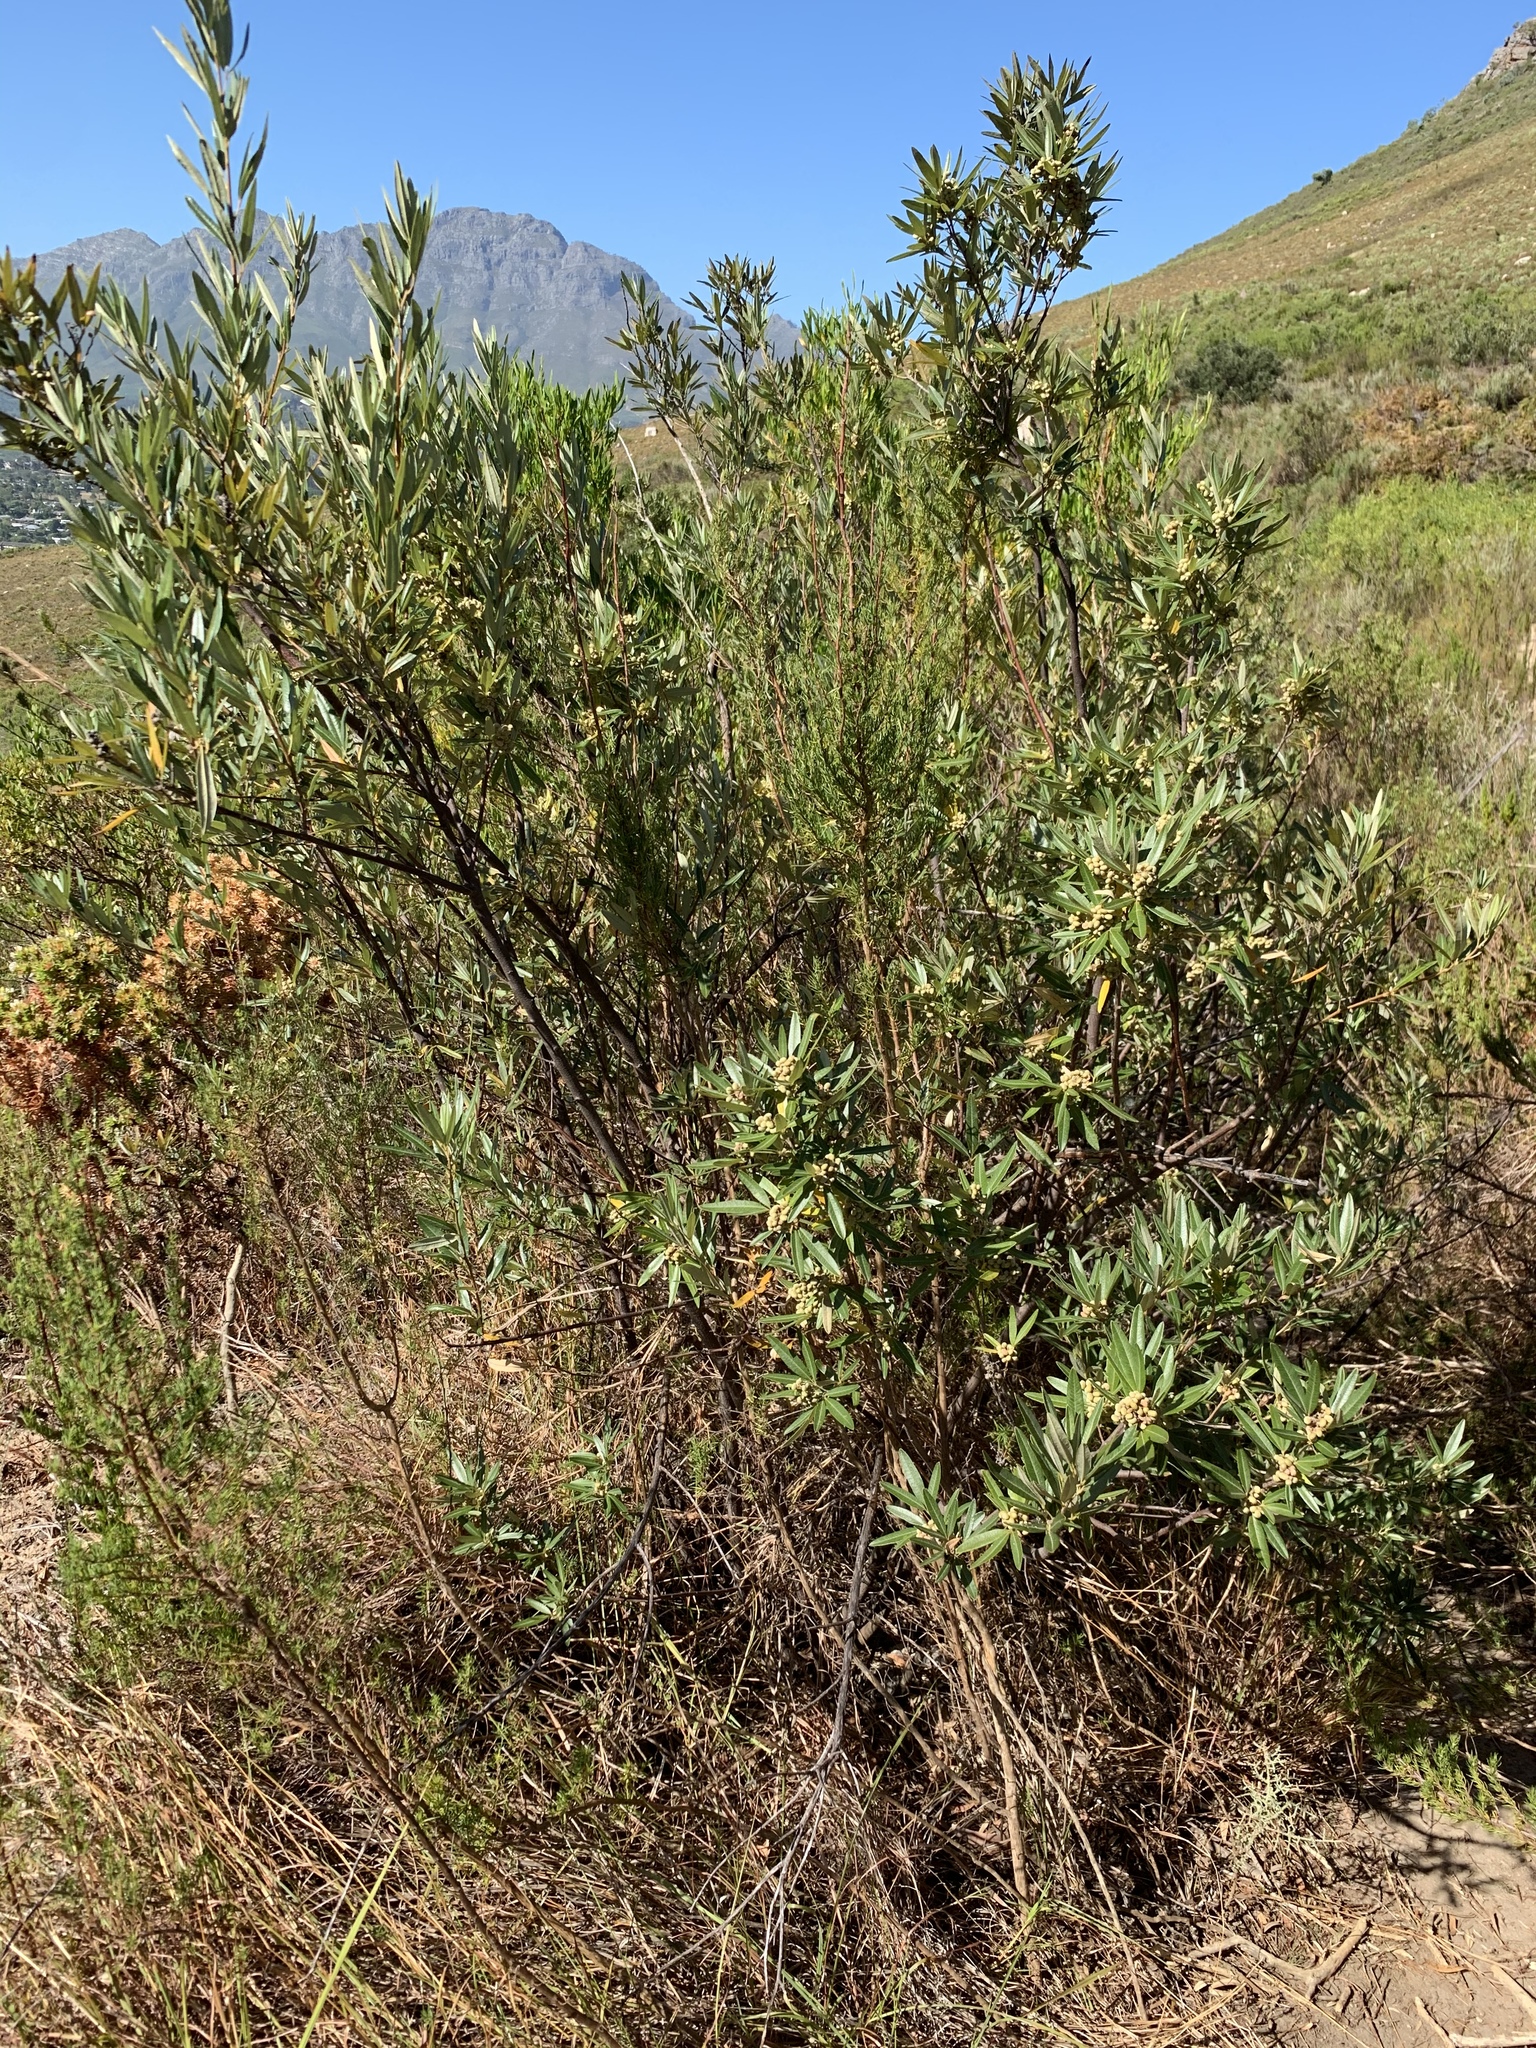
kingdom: Plantae
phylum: Tracheophyta
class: Magnoliopsida
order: Sapindales
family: Anacardiaceae
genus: Searsia
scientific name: Searsia angustifolia
